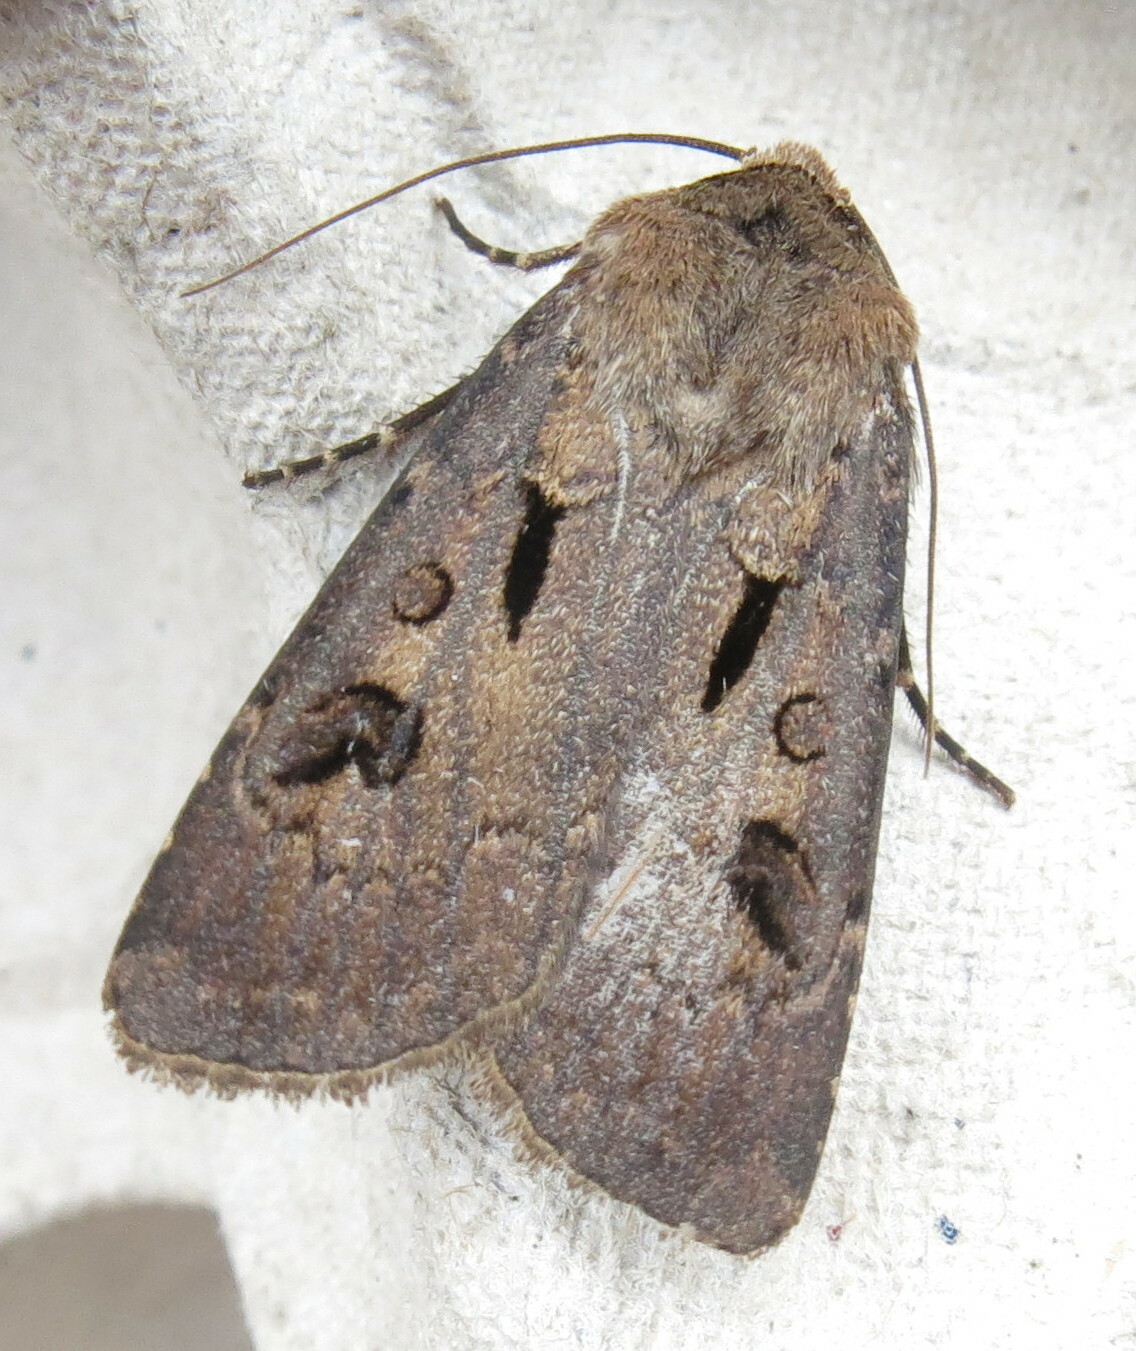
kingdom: Animalia
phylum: Arthropoda
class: Insecta
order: Lepidoptera
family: Noctuidae
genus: Agrotis
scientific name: Agrotis exclamationis
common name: Heart and dart
